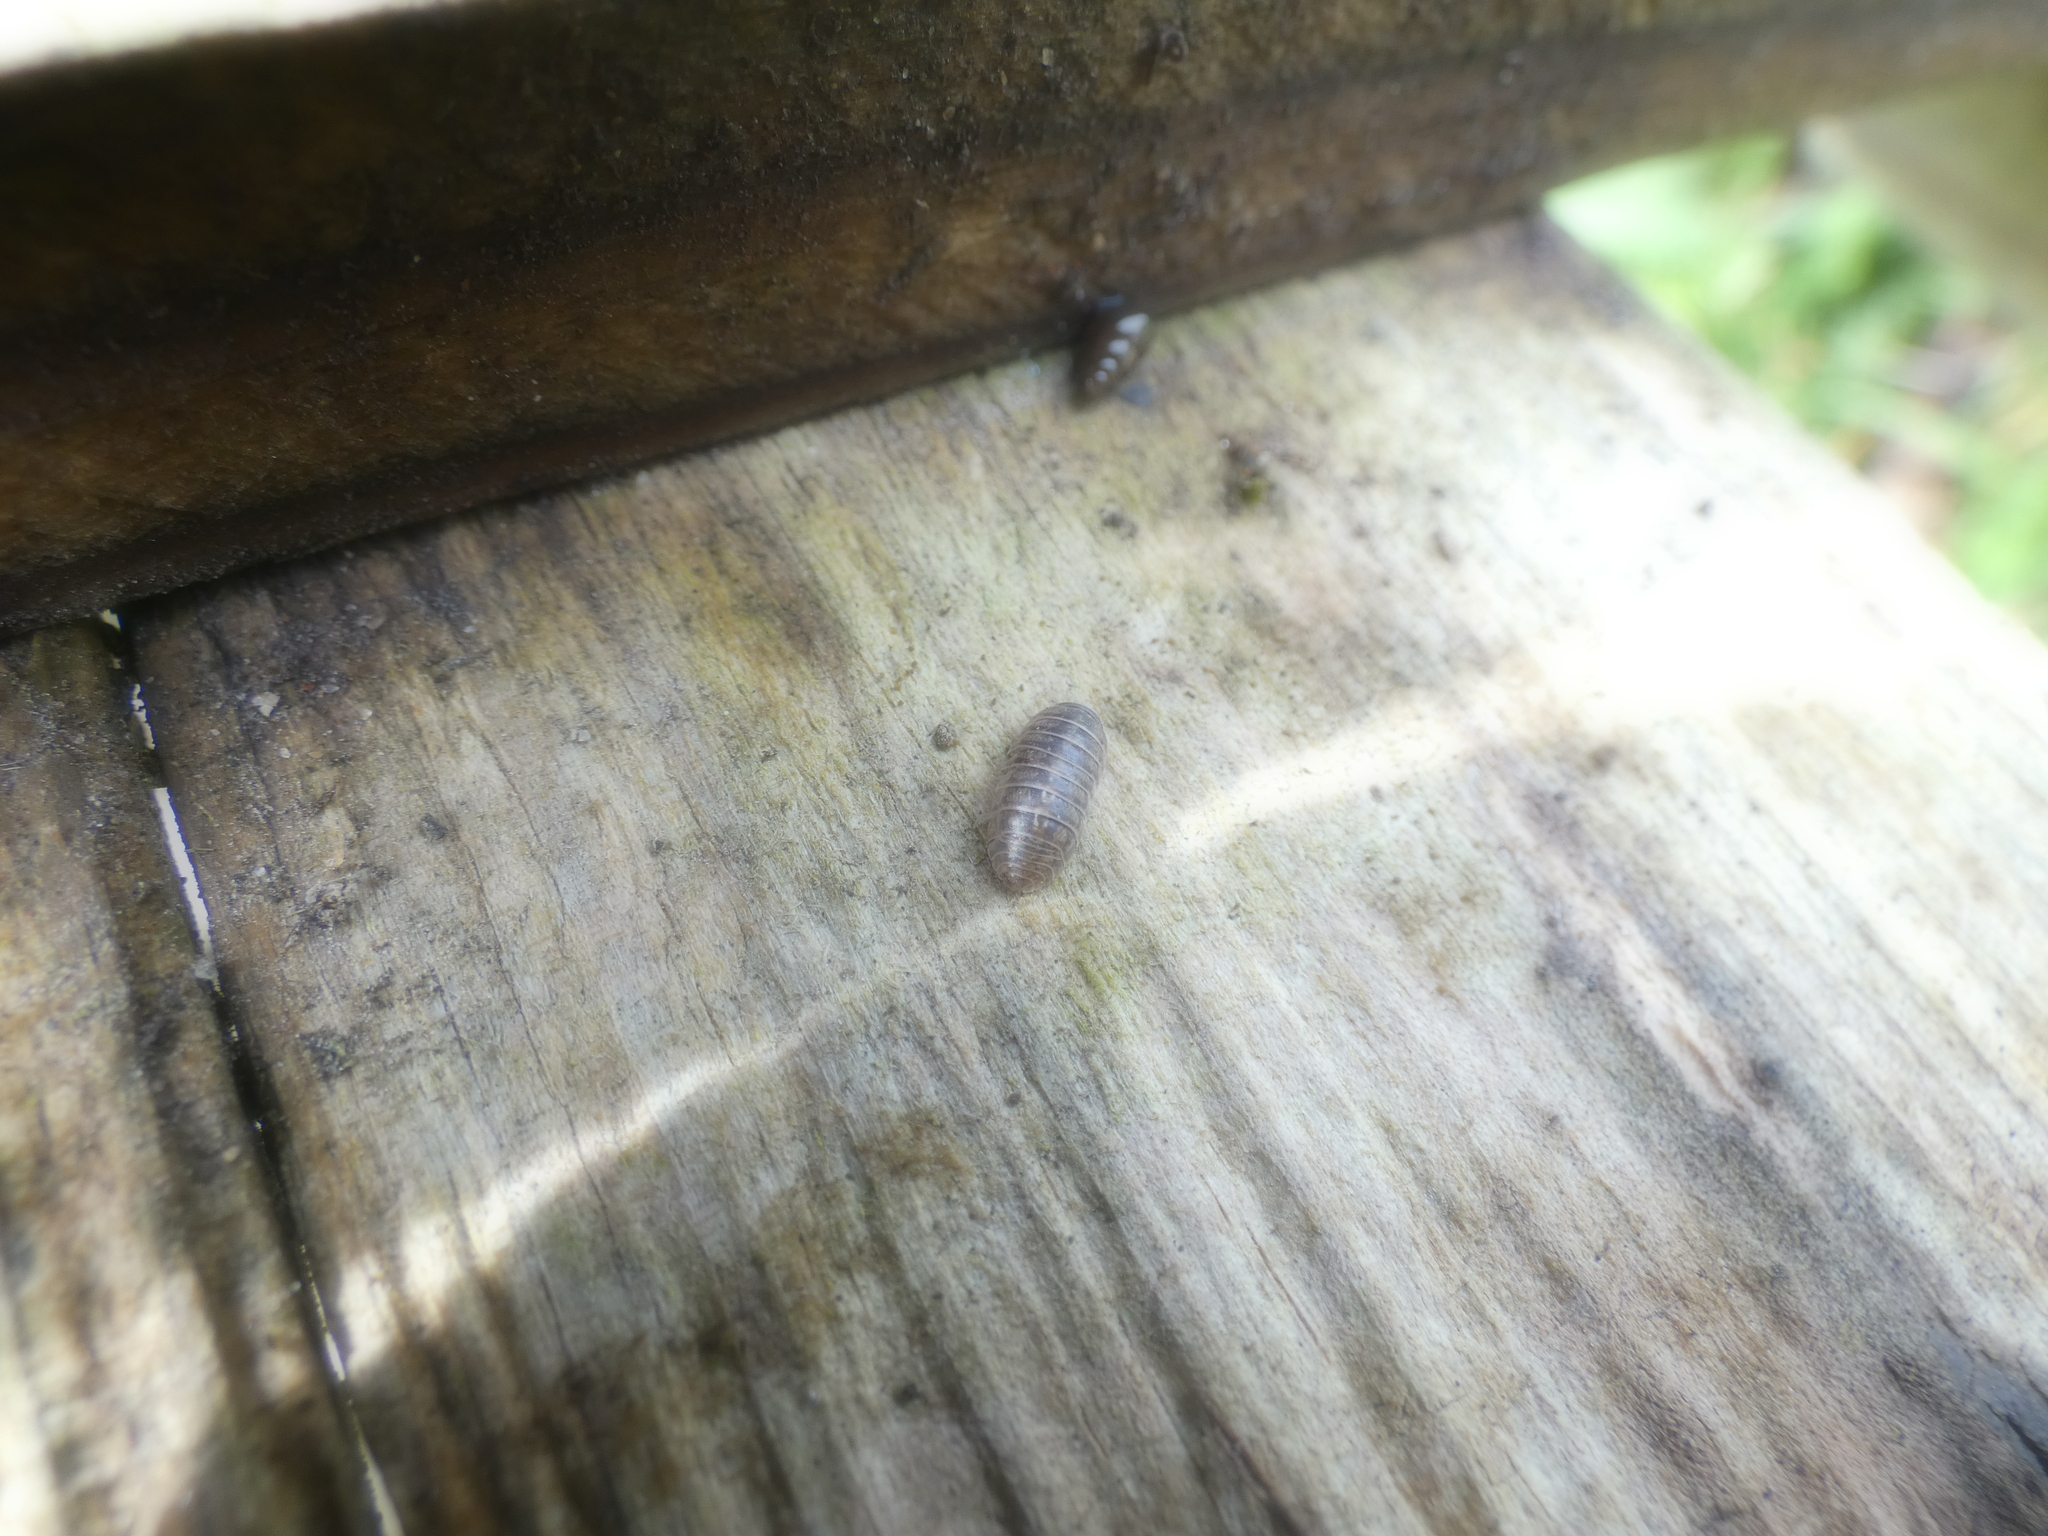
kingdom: Animalia
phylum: Arthropoda
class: Malacostraca
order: Isopoda
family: Armadillidiidae
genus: Armadillidium
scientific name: Armadillidium vulgare
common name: Common pill woodlouse
